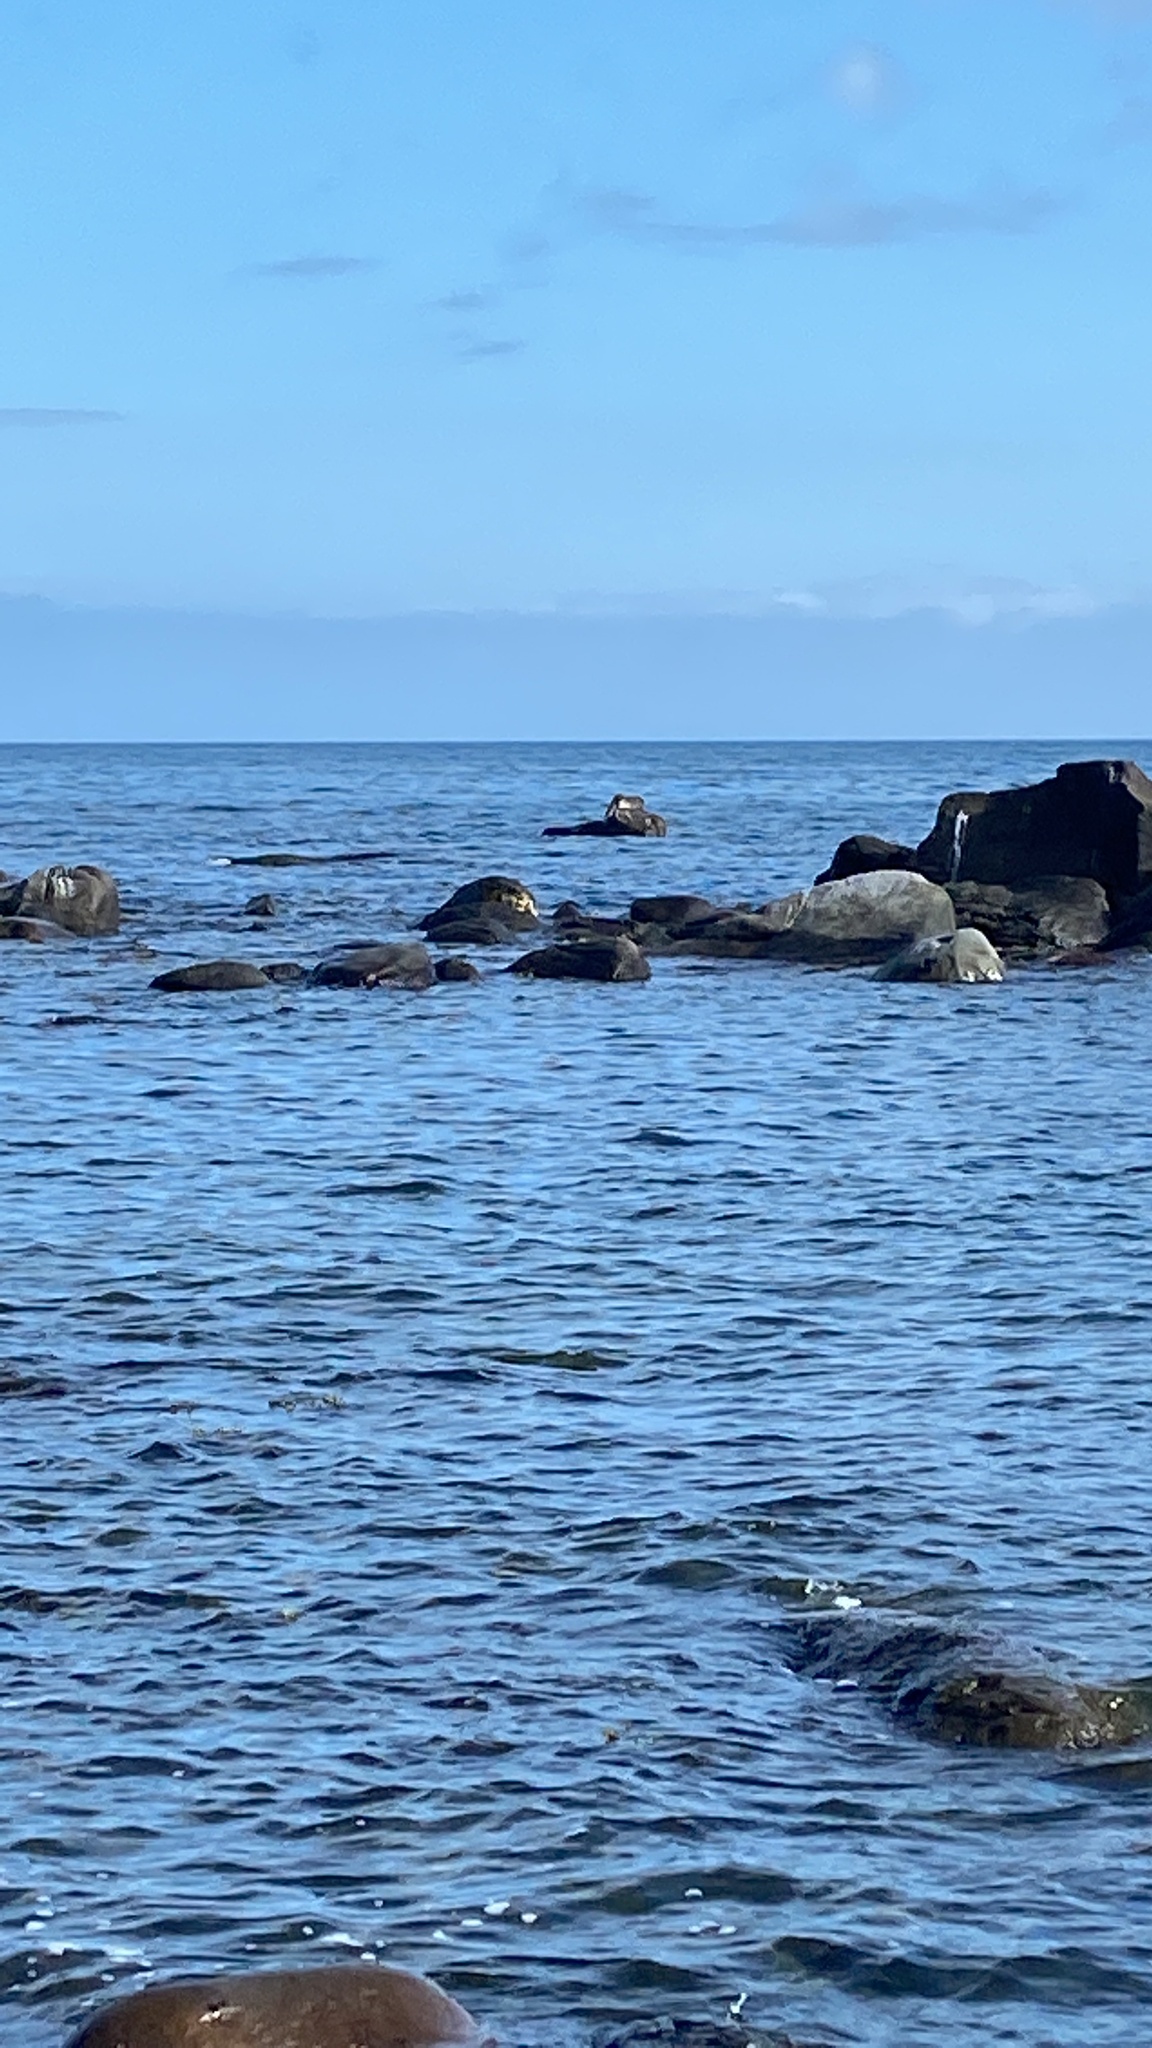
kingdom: Animalia
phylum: Chordata
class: Mammalia
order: Carnivora
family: Phocidae
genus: Phoca
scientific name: Phoca vitulina
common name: Harbor seal
